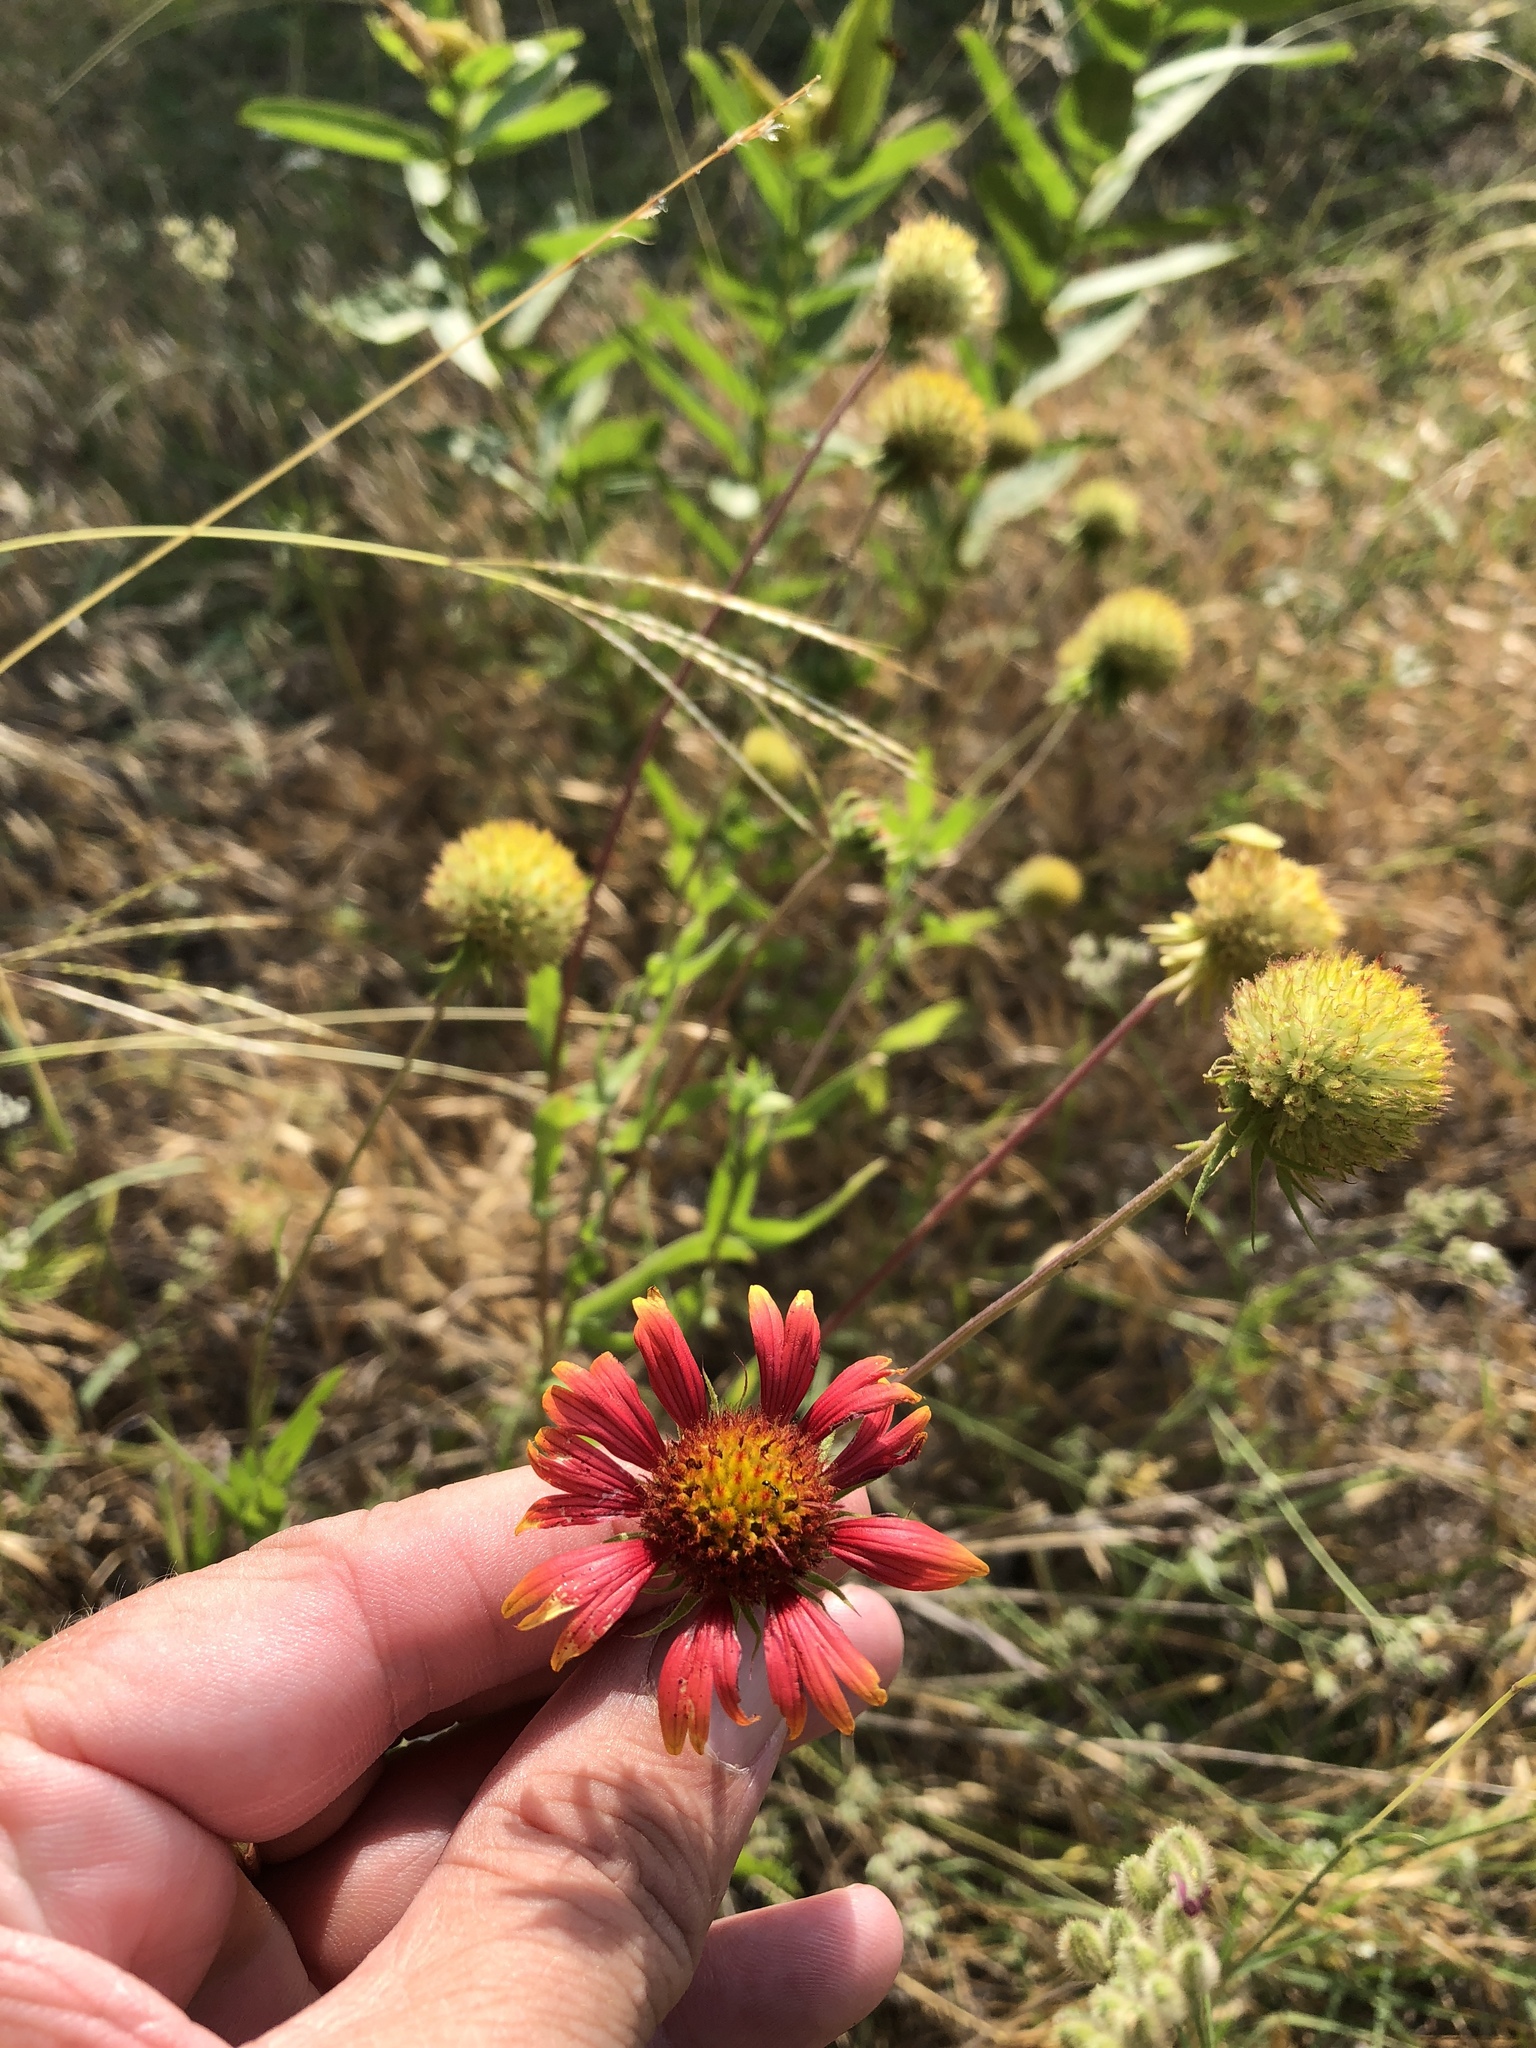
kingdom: Plantae
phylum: Tracheophyta
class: Magnoliopsida
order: Asterales
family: Asteraceae
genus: Gaillardia
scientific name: Gaillardia pulchella
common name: Firewheel
